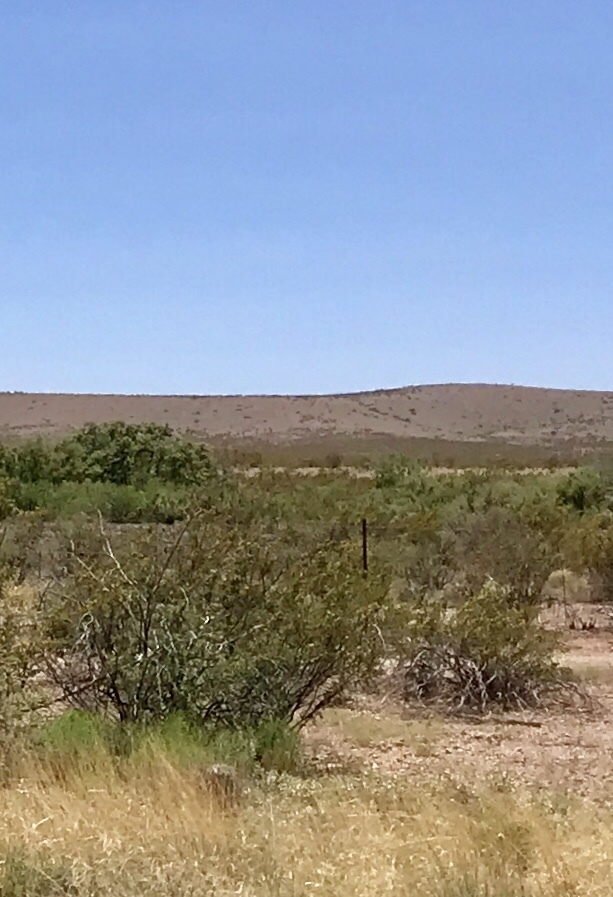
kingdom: Plantae
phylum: Tracheophyta
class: Magnoliopsida
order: Zygophyllales
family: Zygophyllaceae
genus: Larrea
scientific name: Larrea tridentata
